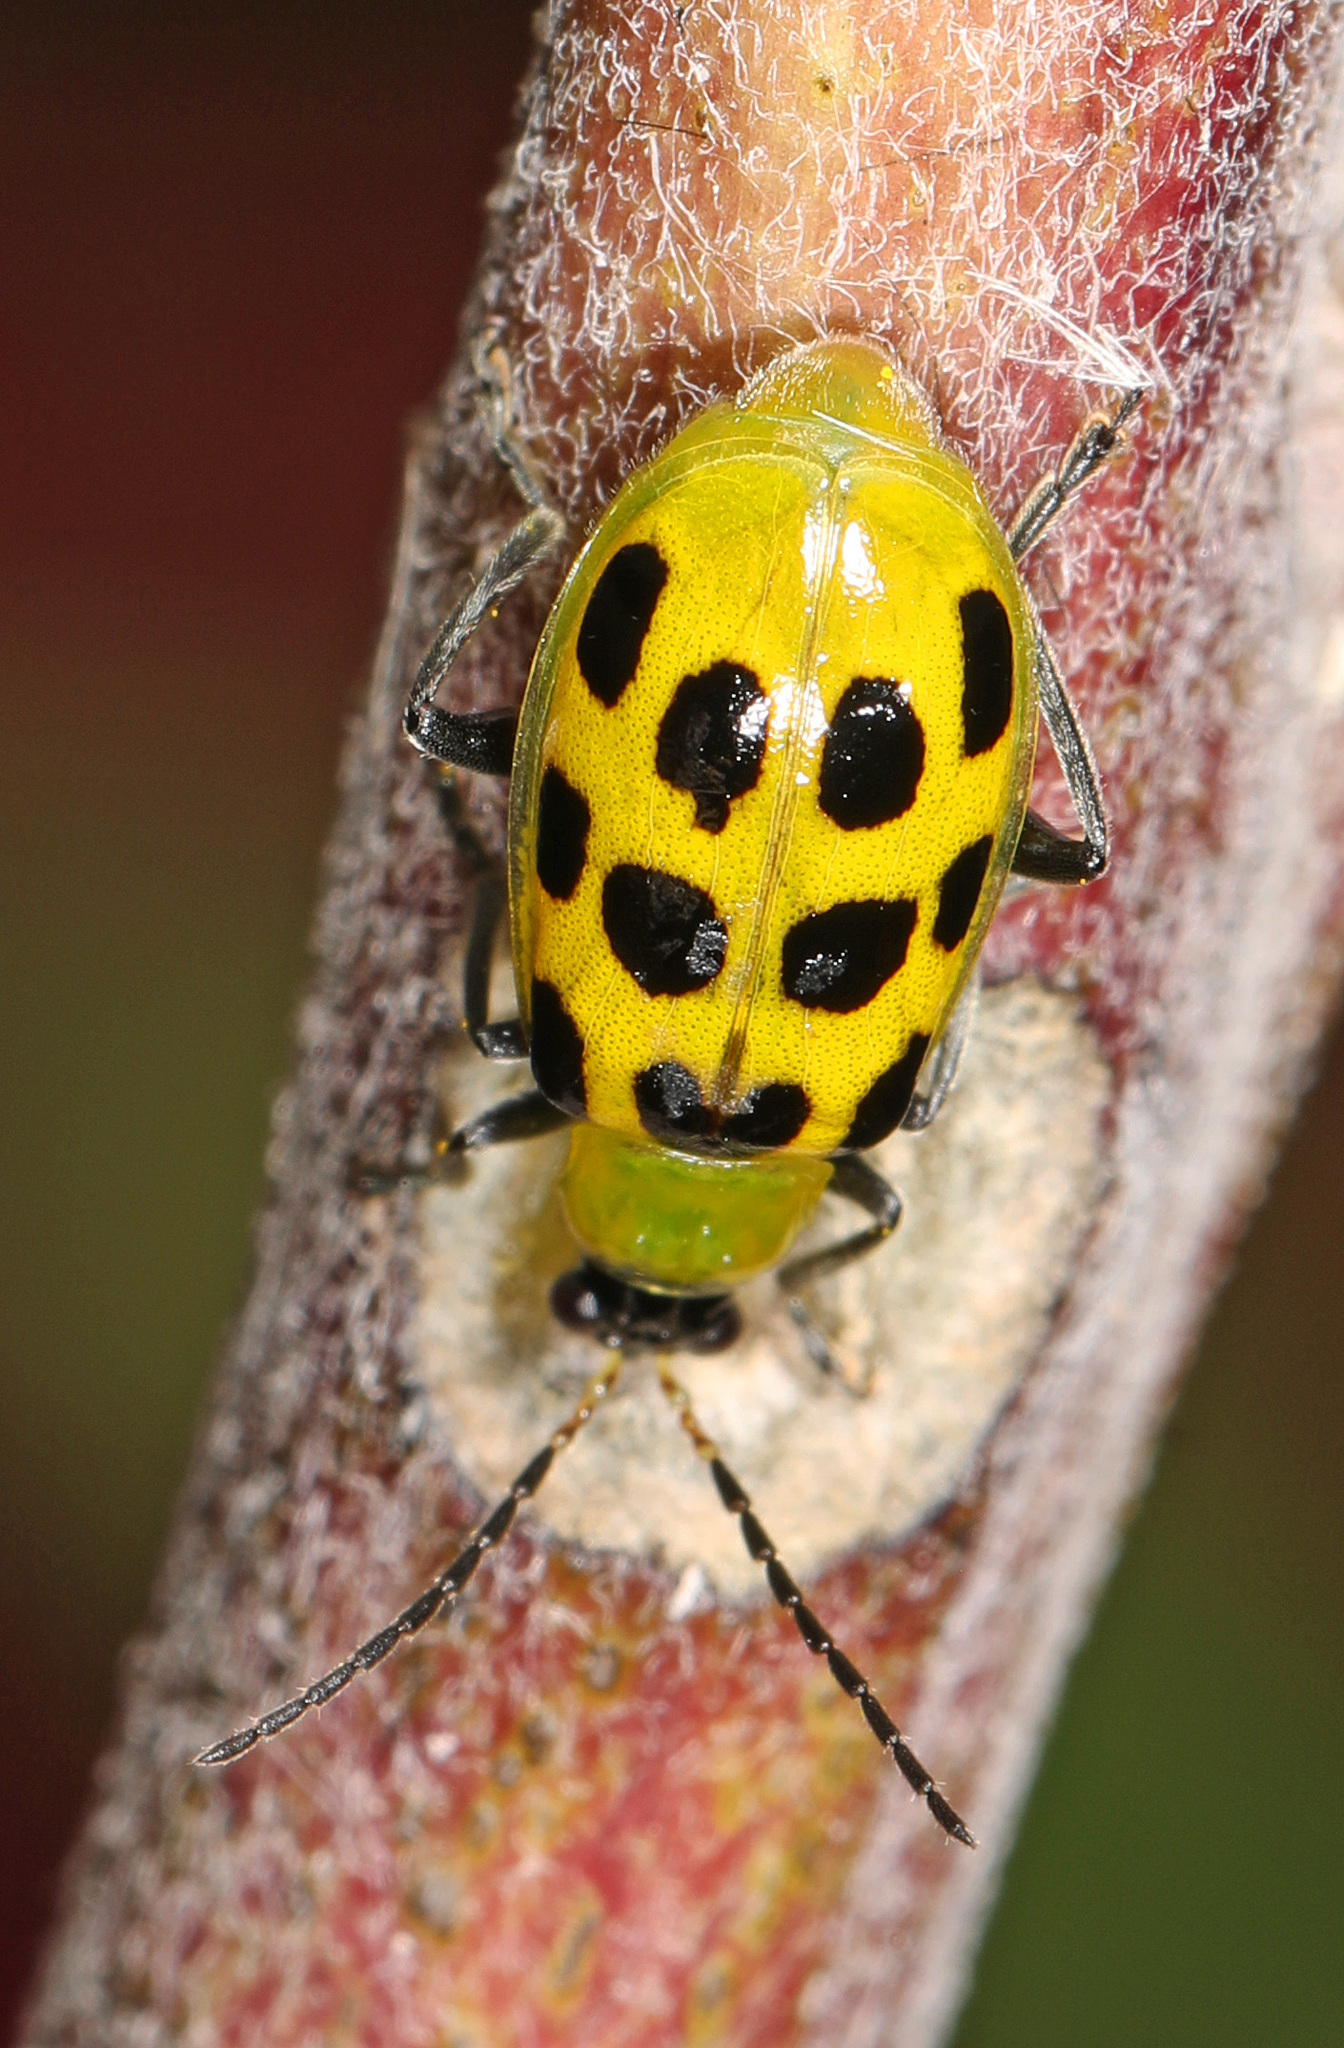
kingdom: Animalia
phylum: Arthropoda
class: Insecta
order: Coleoptera
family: Chrysomelidae
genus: Diabrotica
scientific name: Diabrotica undecimpunctata
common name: Spotted cucumber beetle
